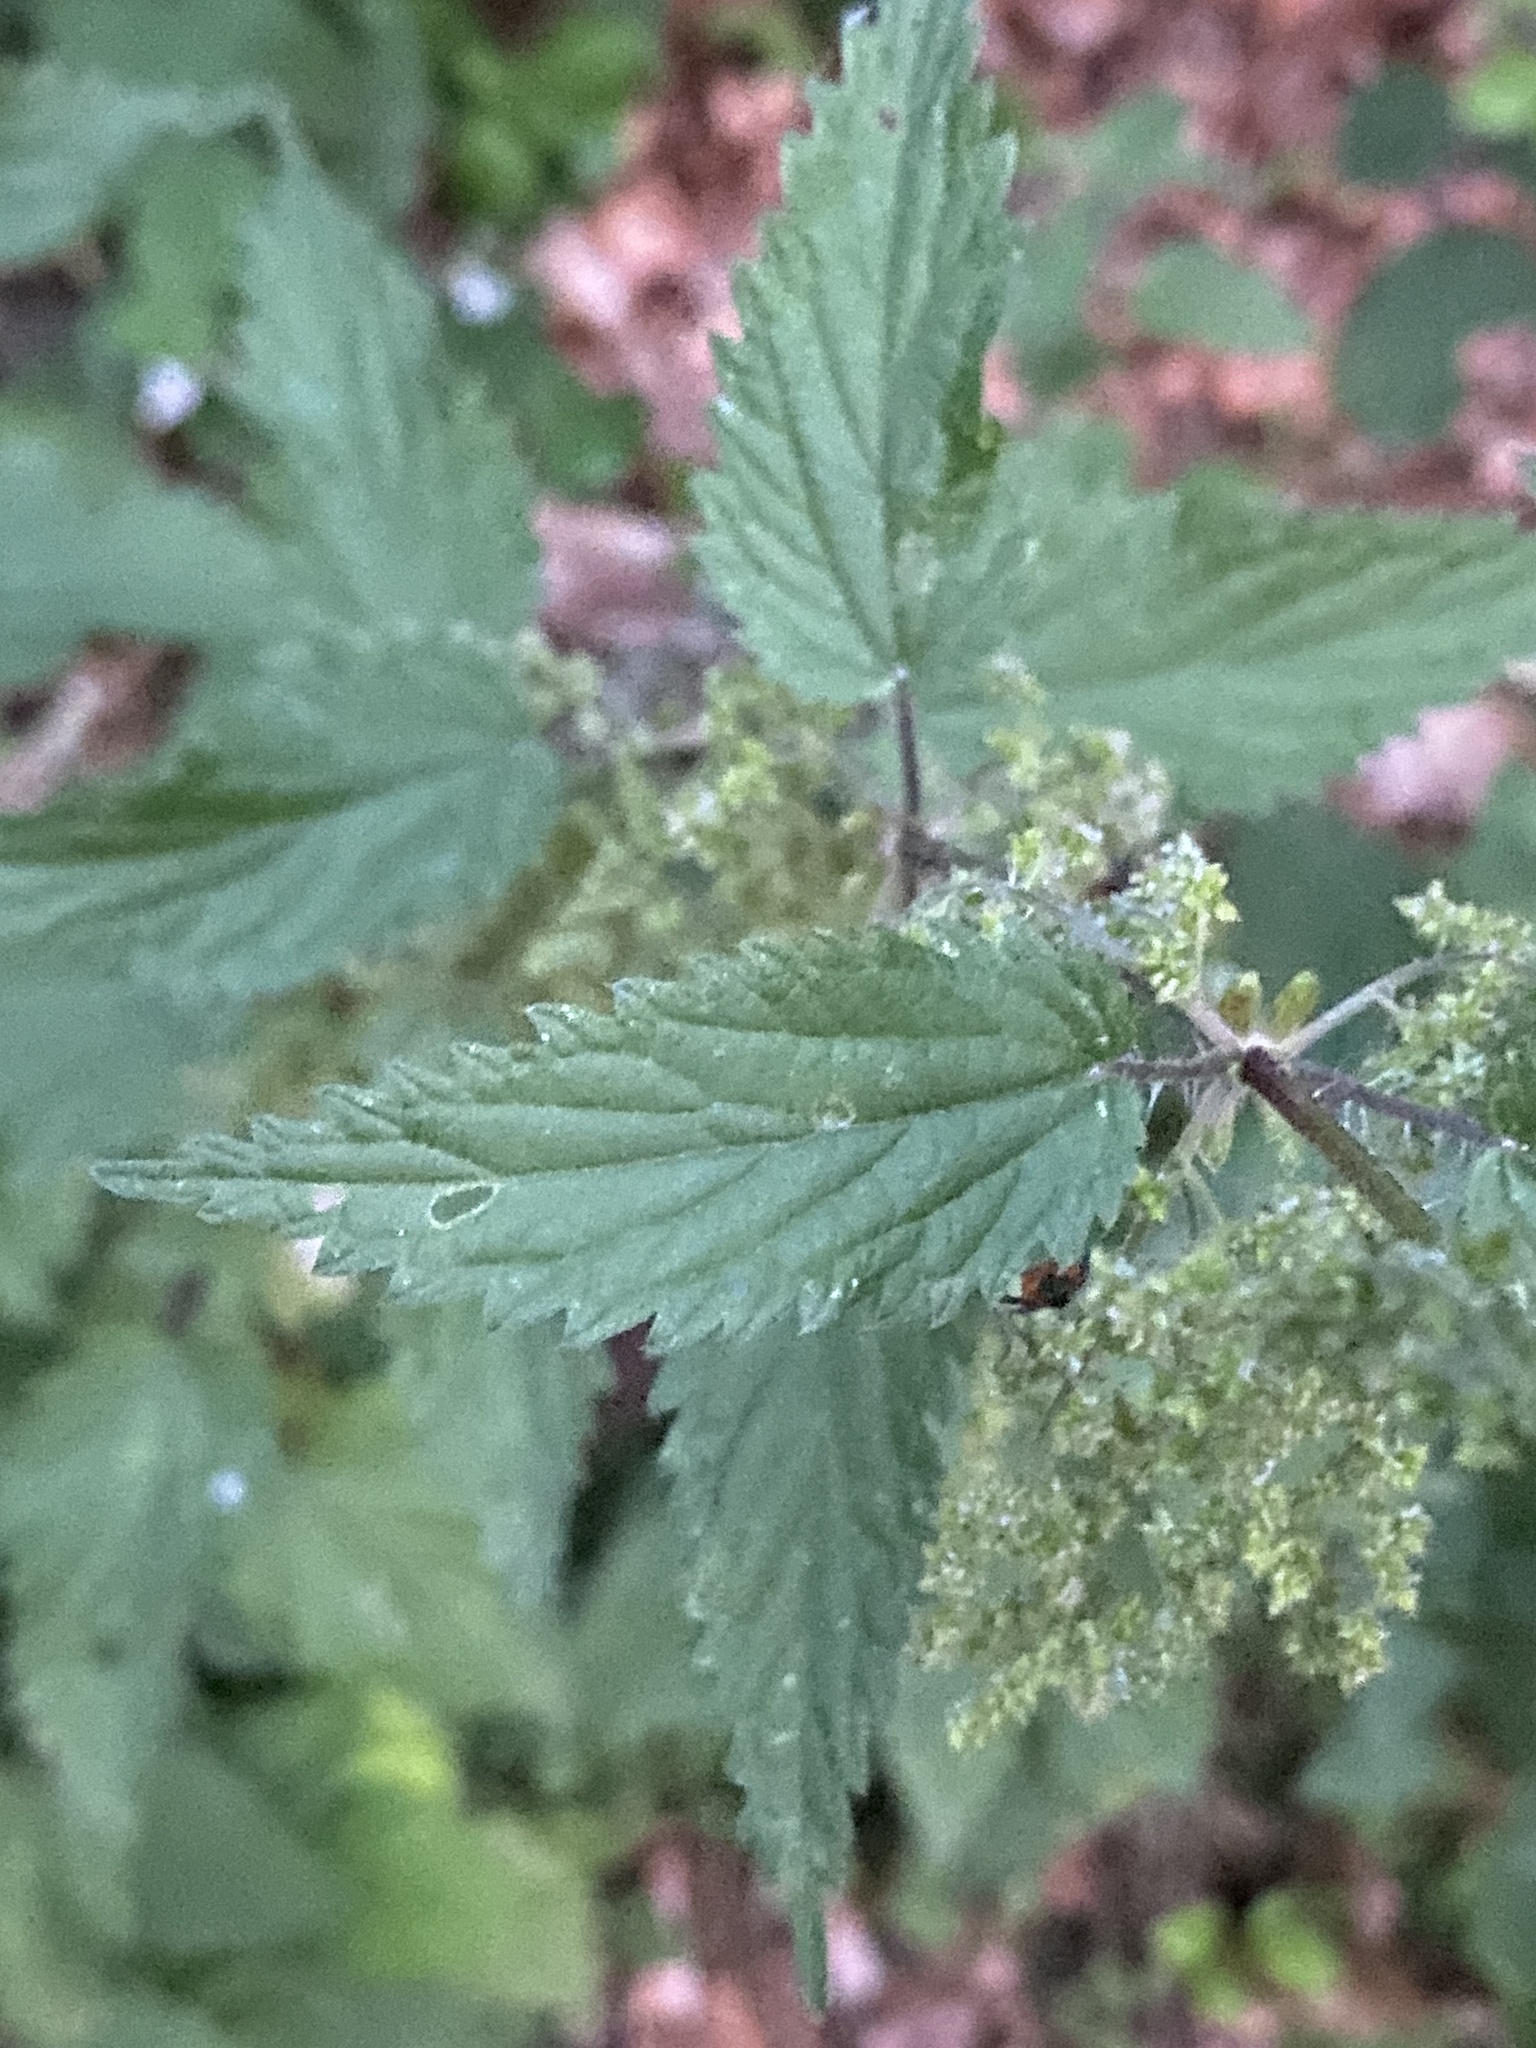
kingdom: Plantae
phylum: Tracheophyta
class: Magnoliopsida
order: Rosales
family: Urticaceae
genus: Urtica
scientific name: Urtica dioica
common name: Common nettle
